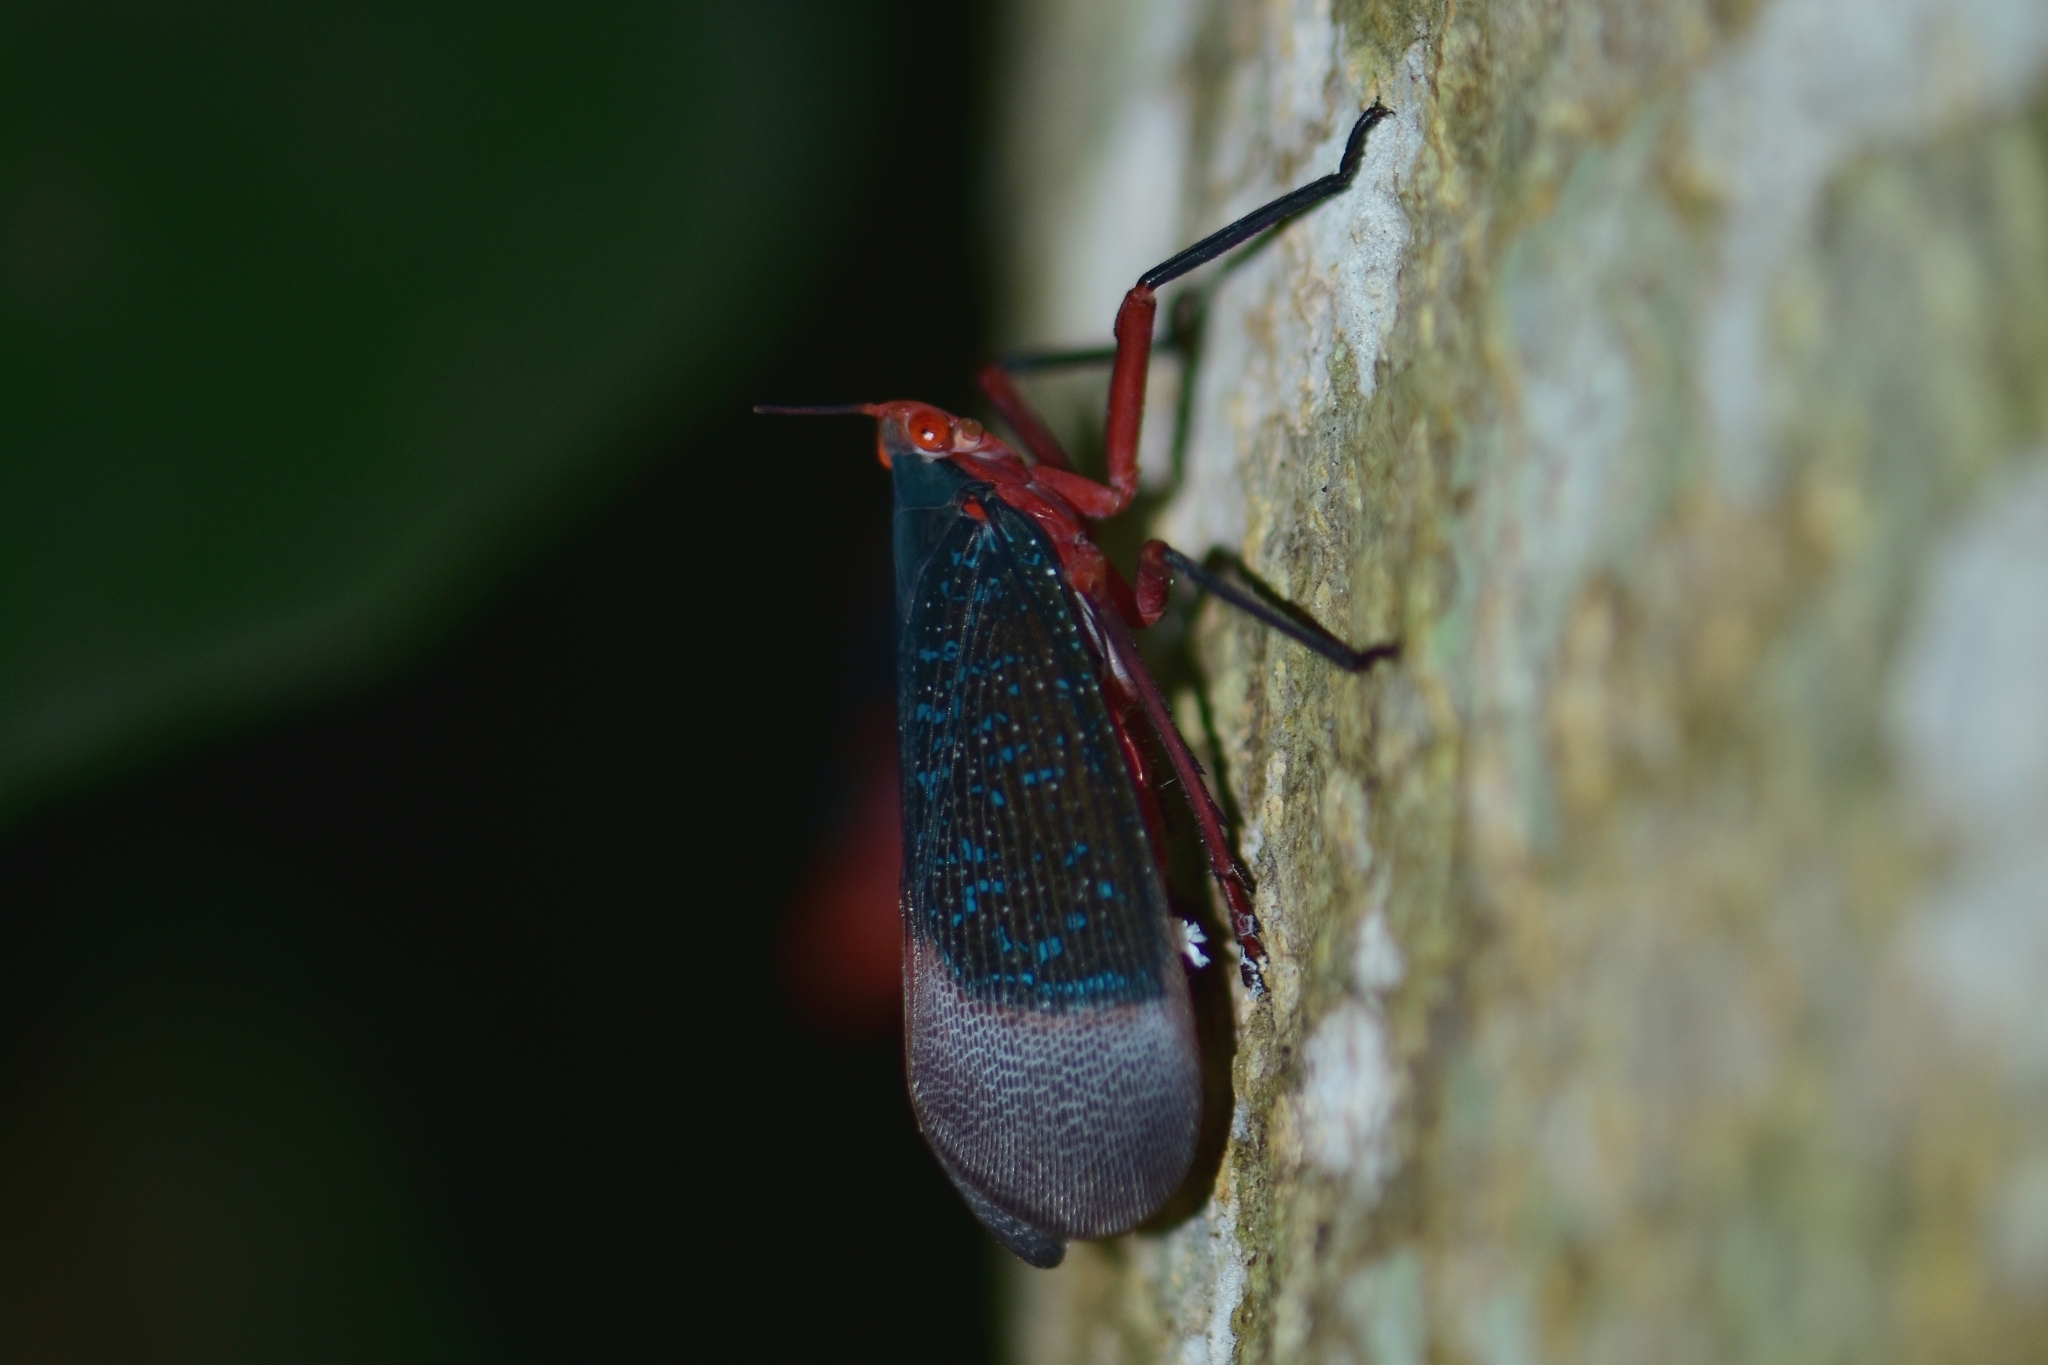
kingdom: Animalia
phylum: Arthropoda
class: Insecta
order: Hemiptera
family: Fulgoridae
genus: Kalidasa
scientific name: Kalidasa lanata
